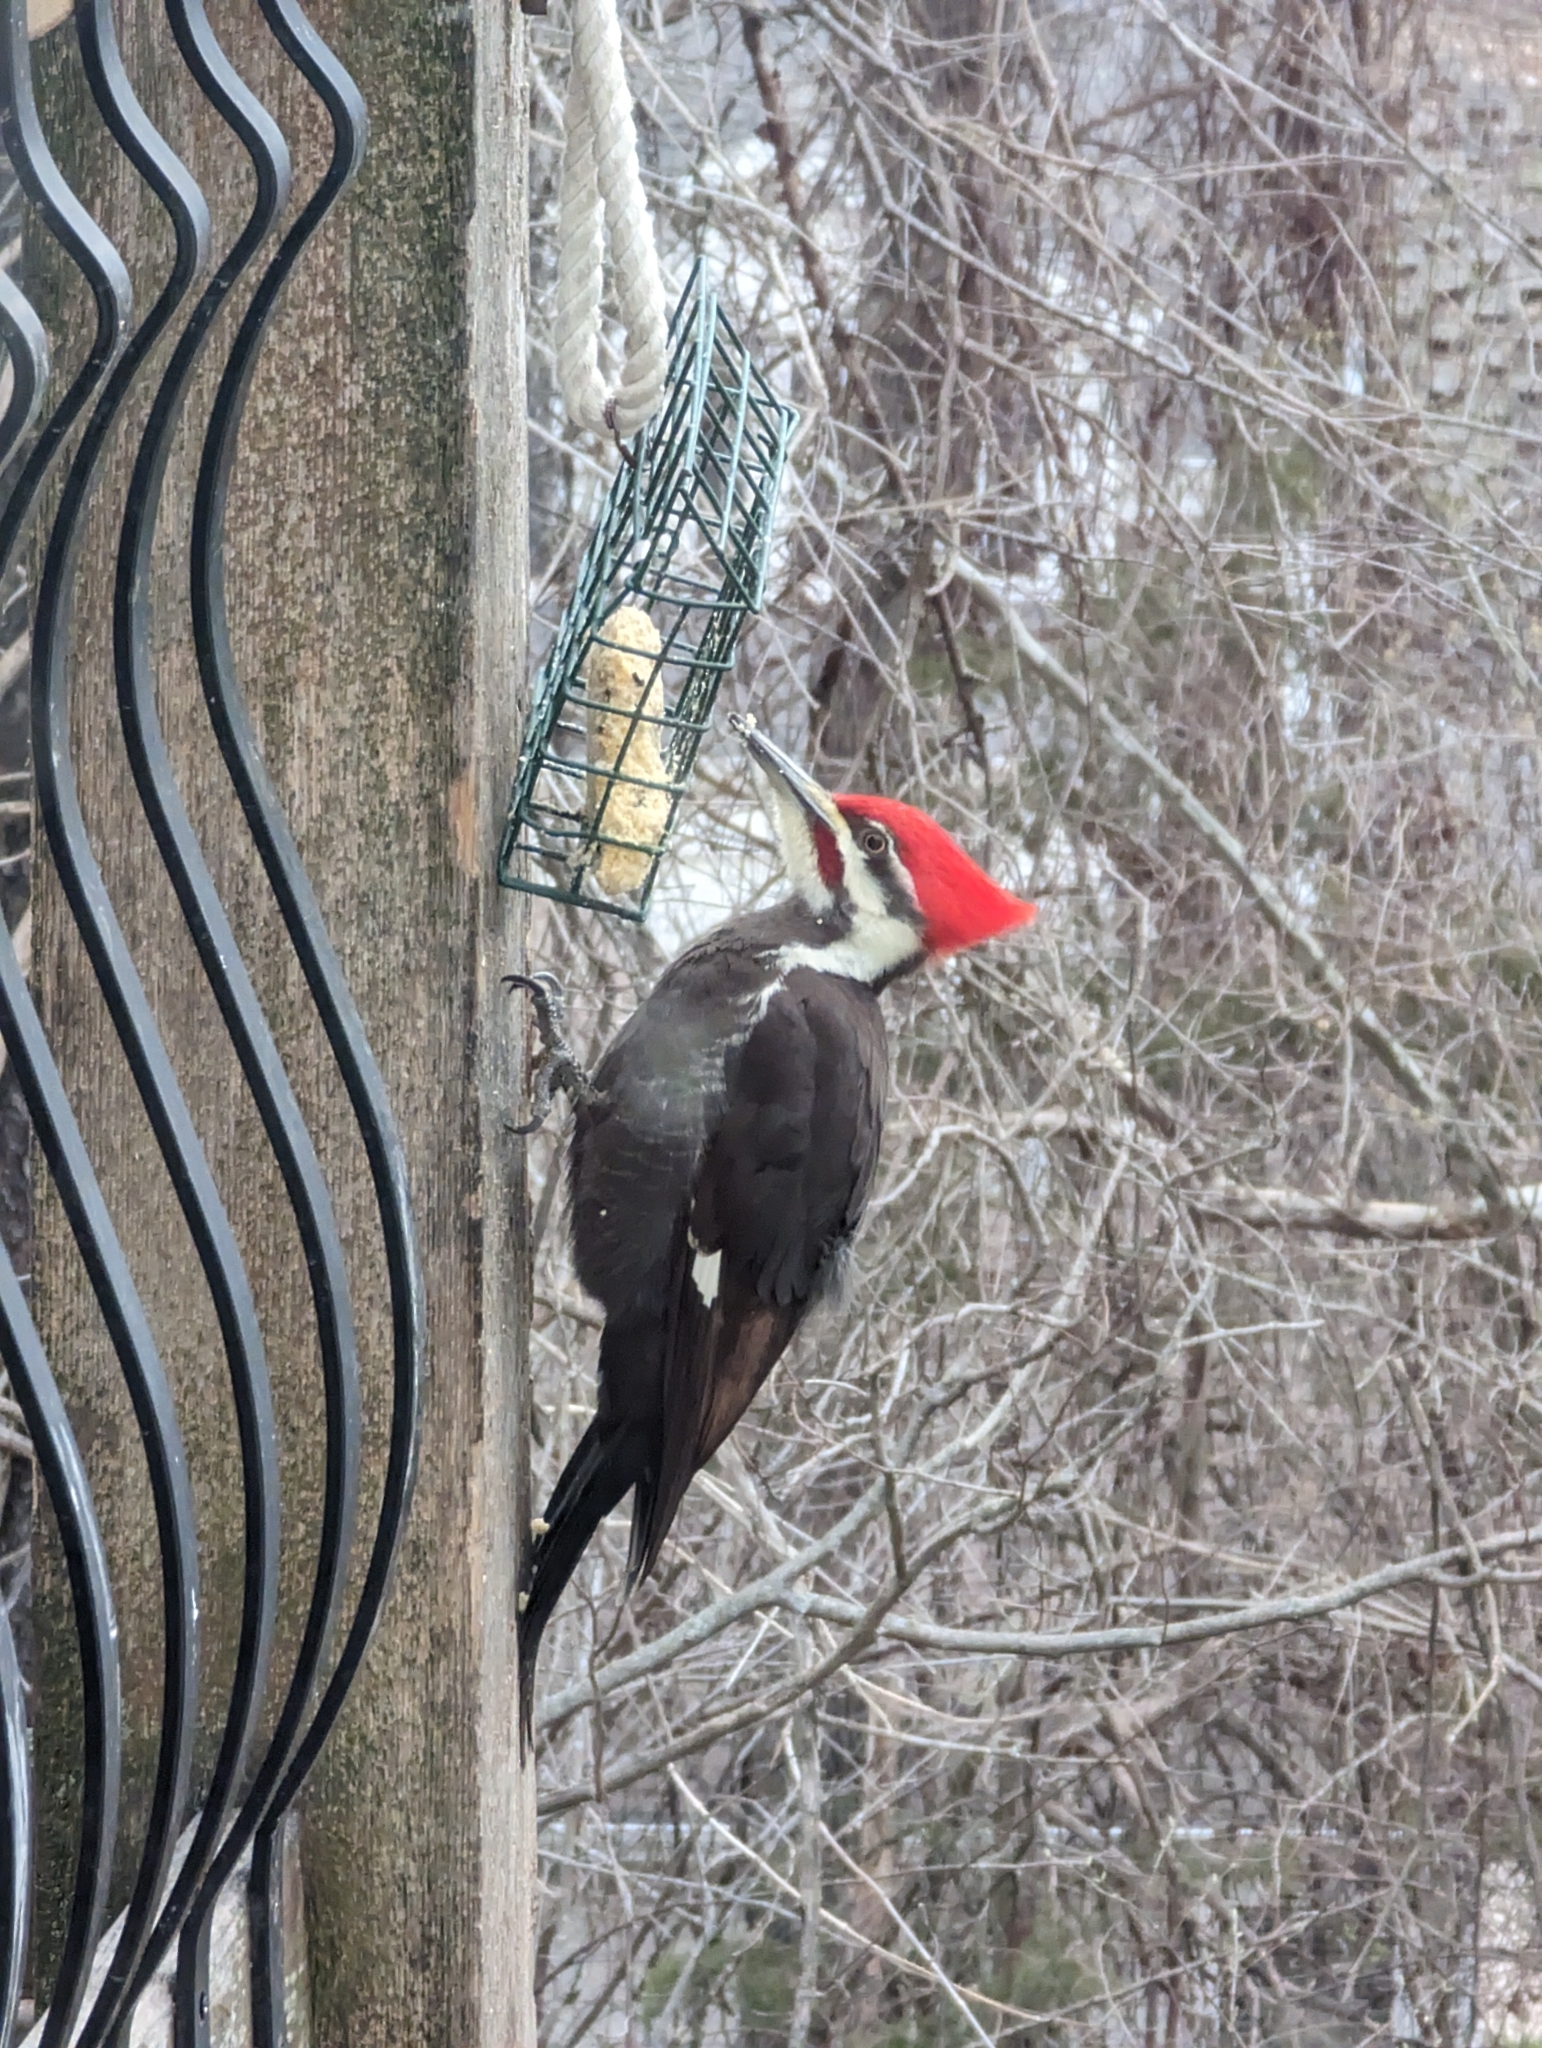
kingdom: Animalia
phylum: Chordata
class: Aves
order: Piciformes
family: Picidae
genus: Dryocopus
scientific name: Dryocopus pileatus
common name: Pileated woodpecker
